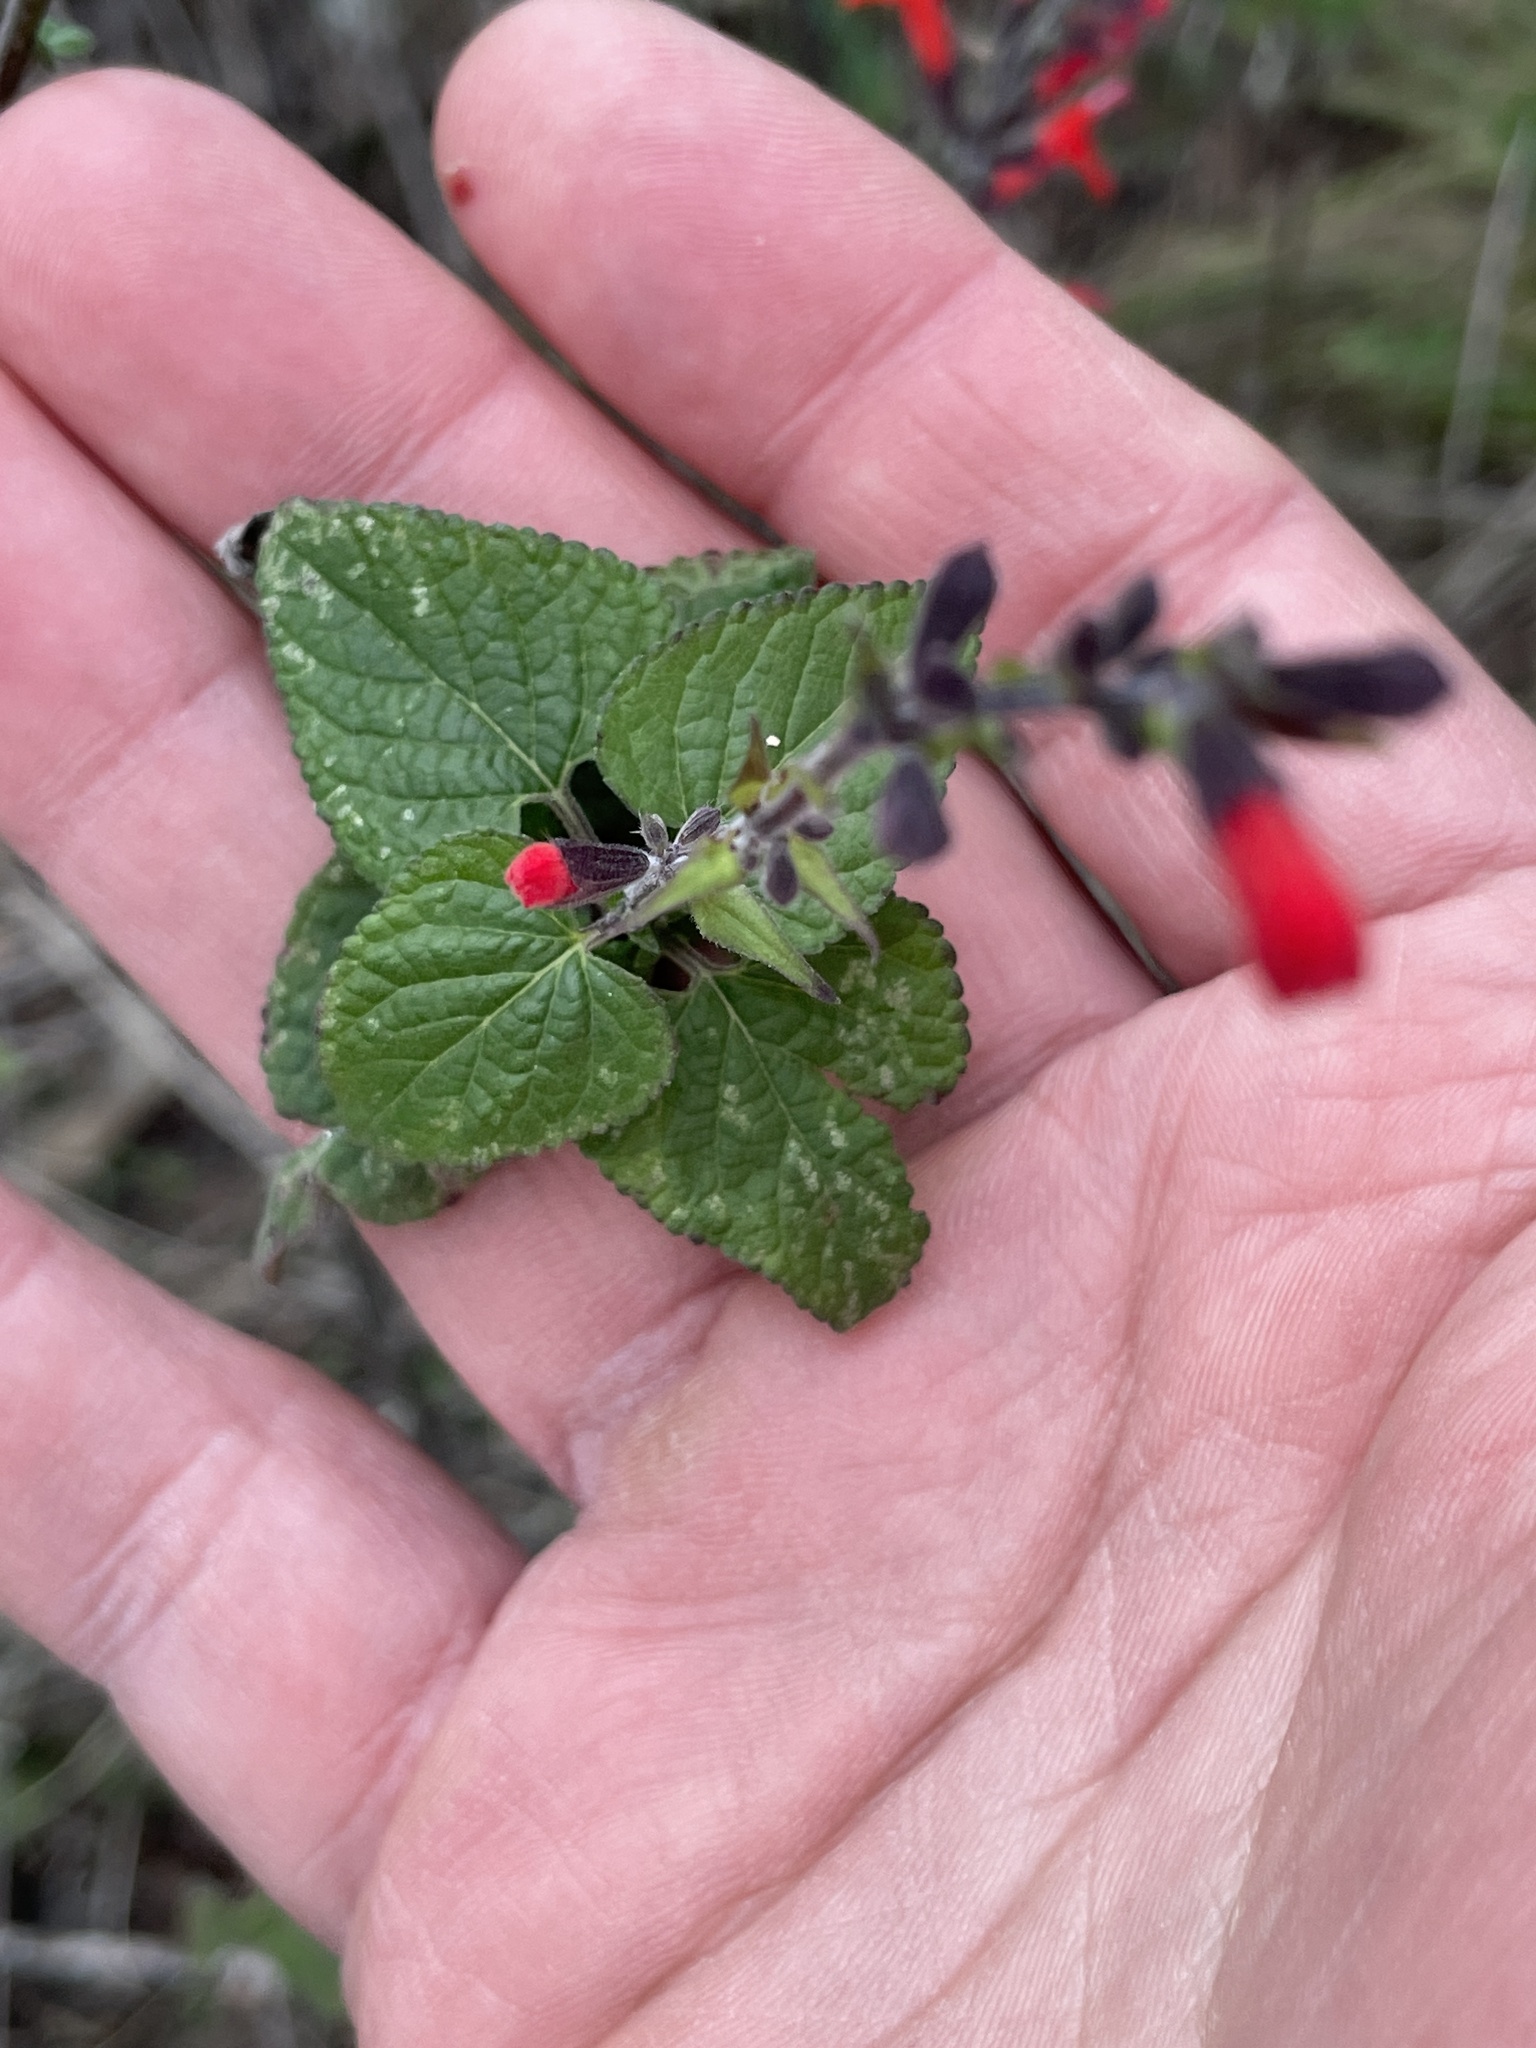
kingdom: Plantae
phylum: Tracheophyta
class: Magnoliopsida
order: Lamiales
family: Lamiaceae
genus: Salvia
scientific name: Salvia coccinea
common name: Blood sage
